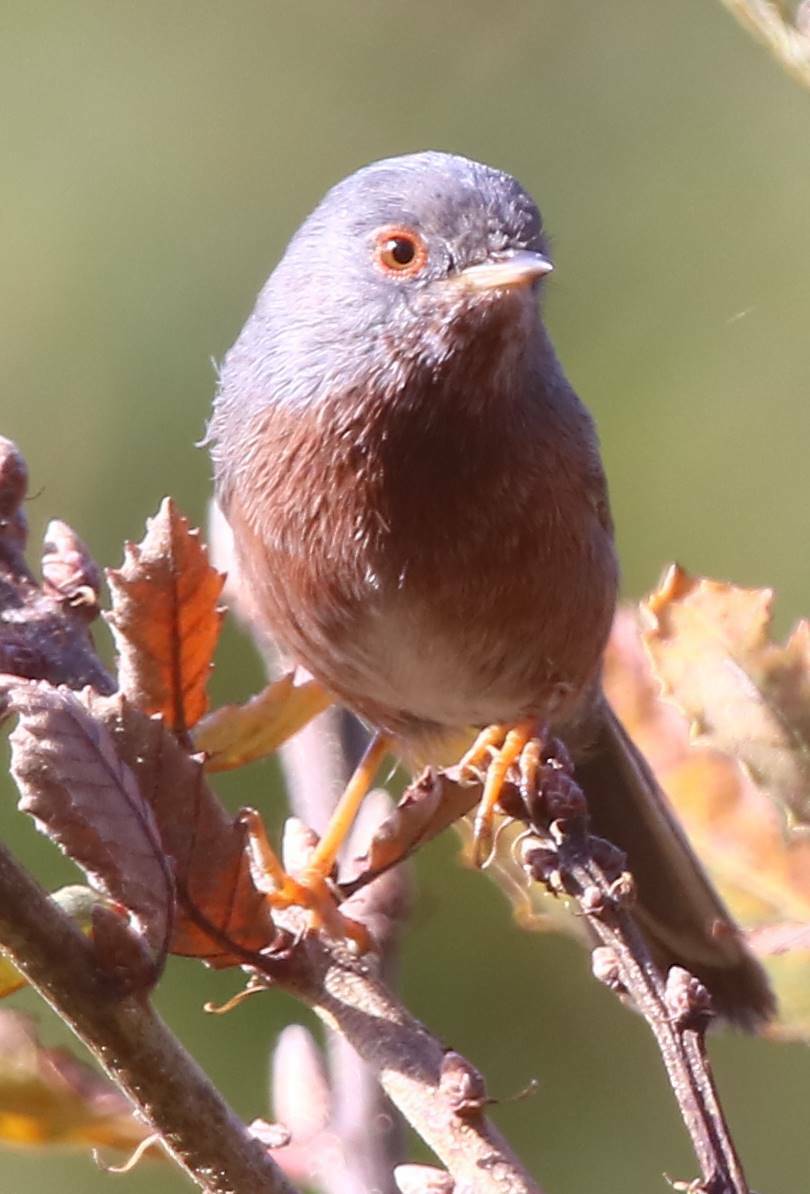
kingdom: Animalia
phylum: Chordata
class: Aves
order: Passeriformes
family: Sylviidae
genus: Sylvia
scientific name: Sylvia undata
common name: Dartford warbler
